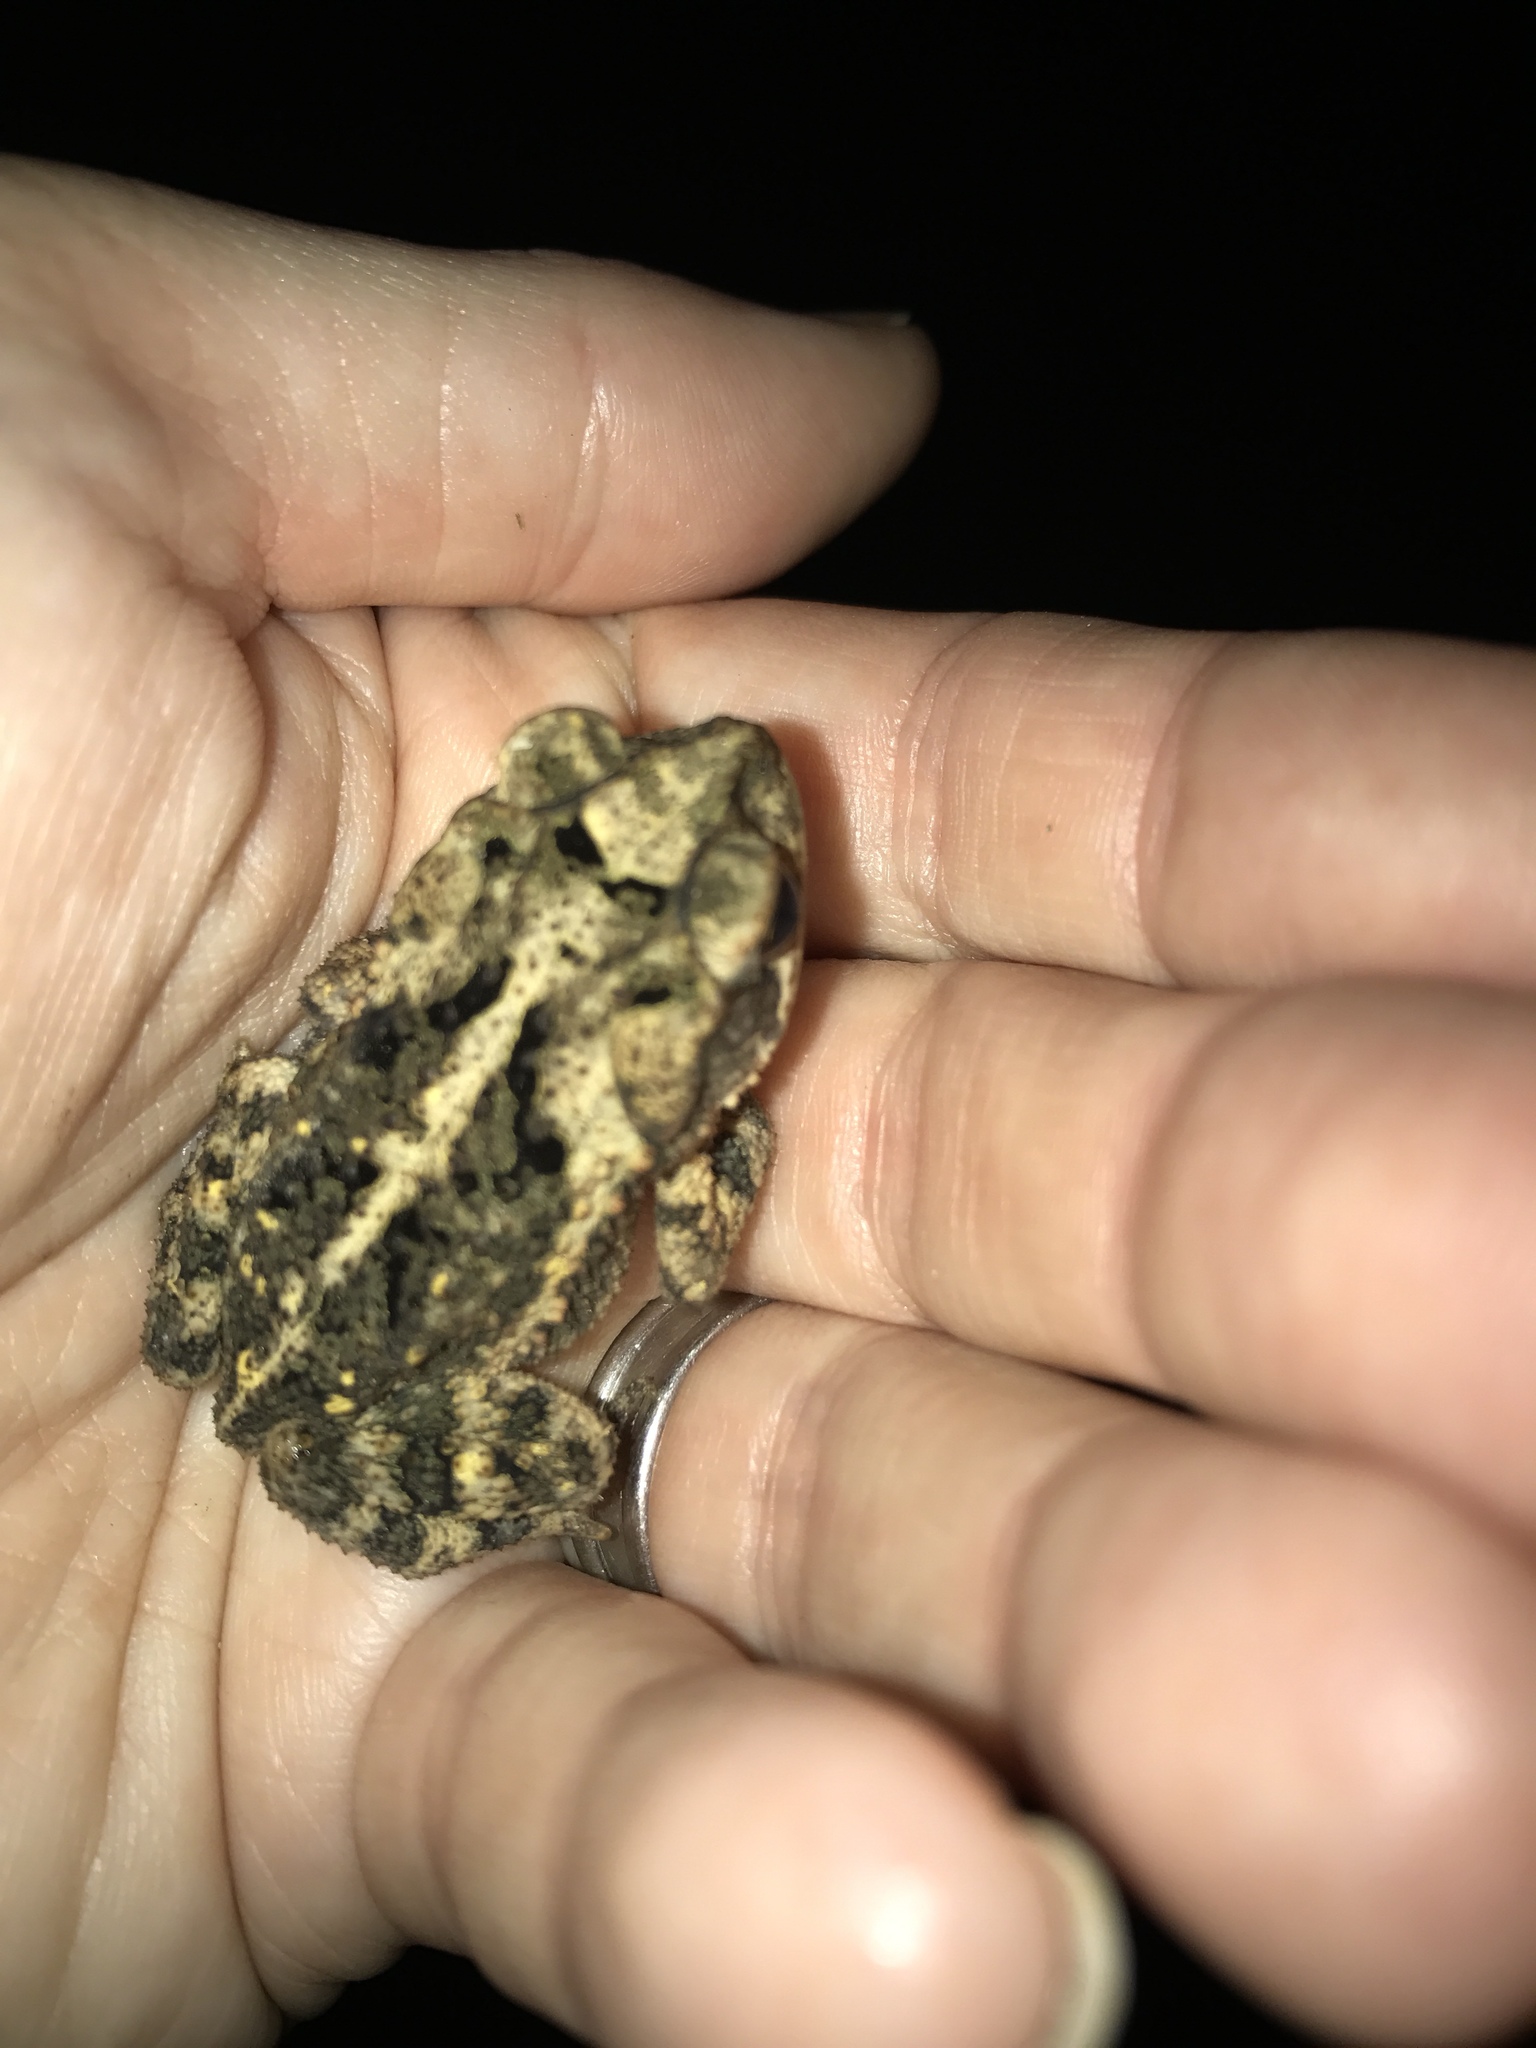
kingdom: Animalia
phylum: Chordata
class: Amphibia
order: Anura
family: Bufonidae
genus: Incilius
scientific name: Incilius nebulifer
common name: Gulf coast toad
